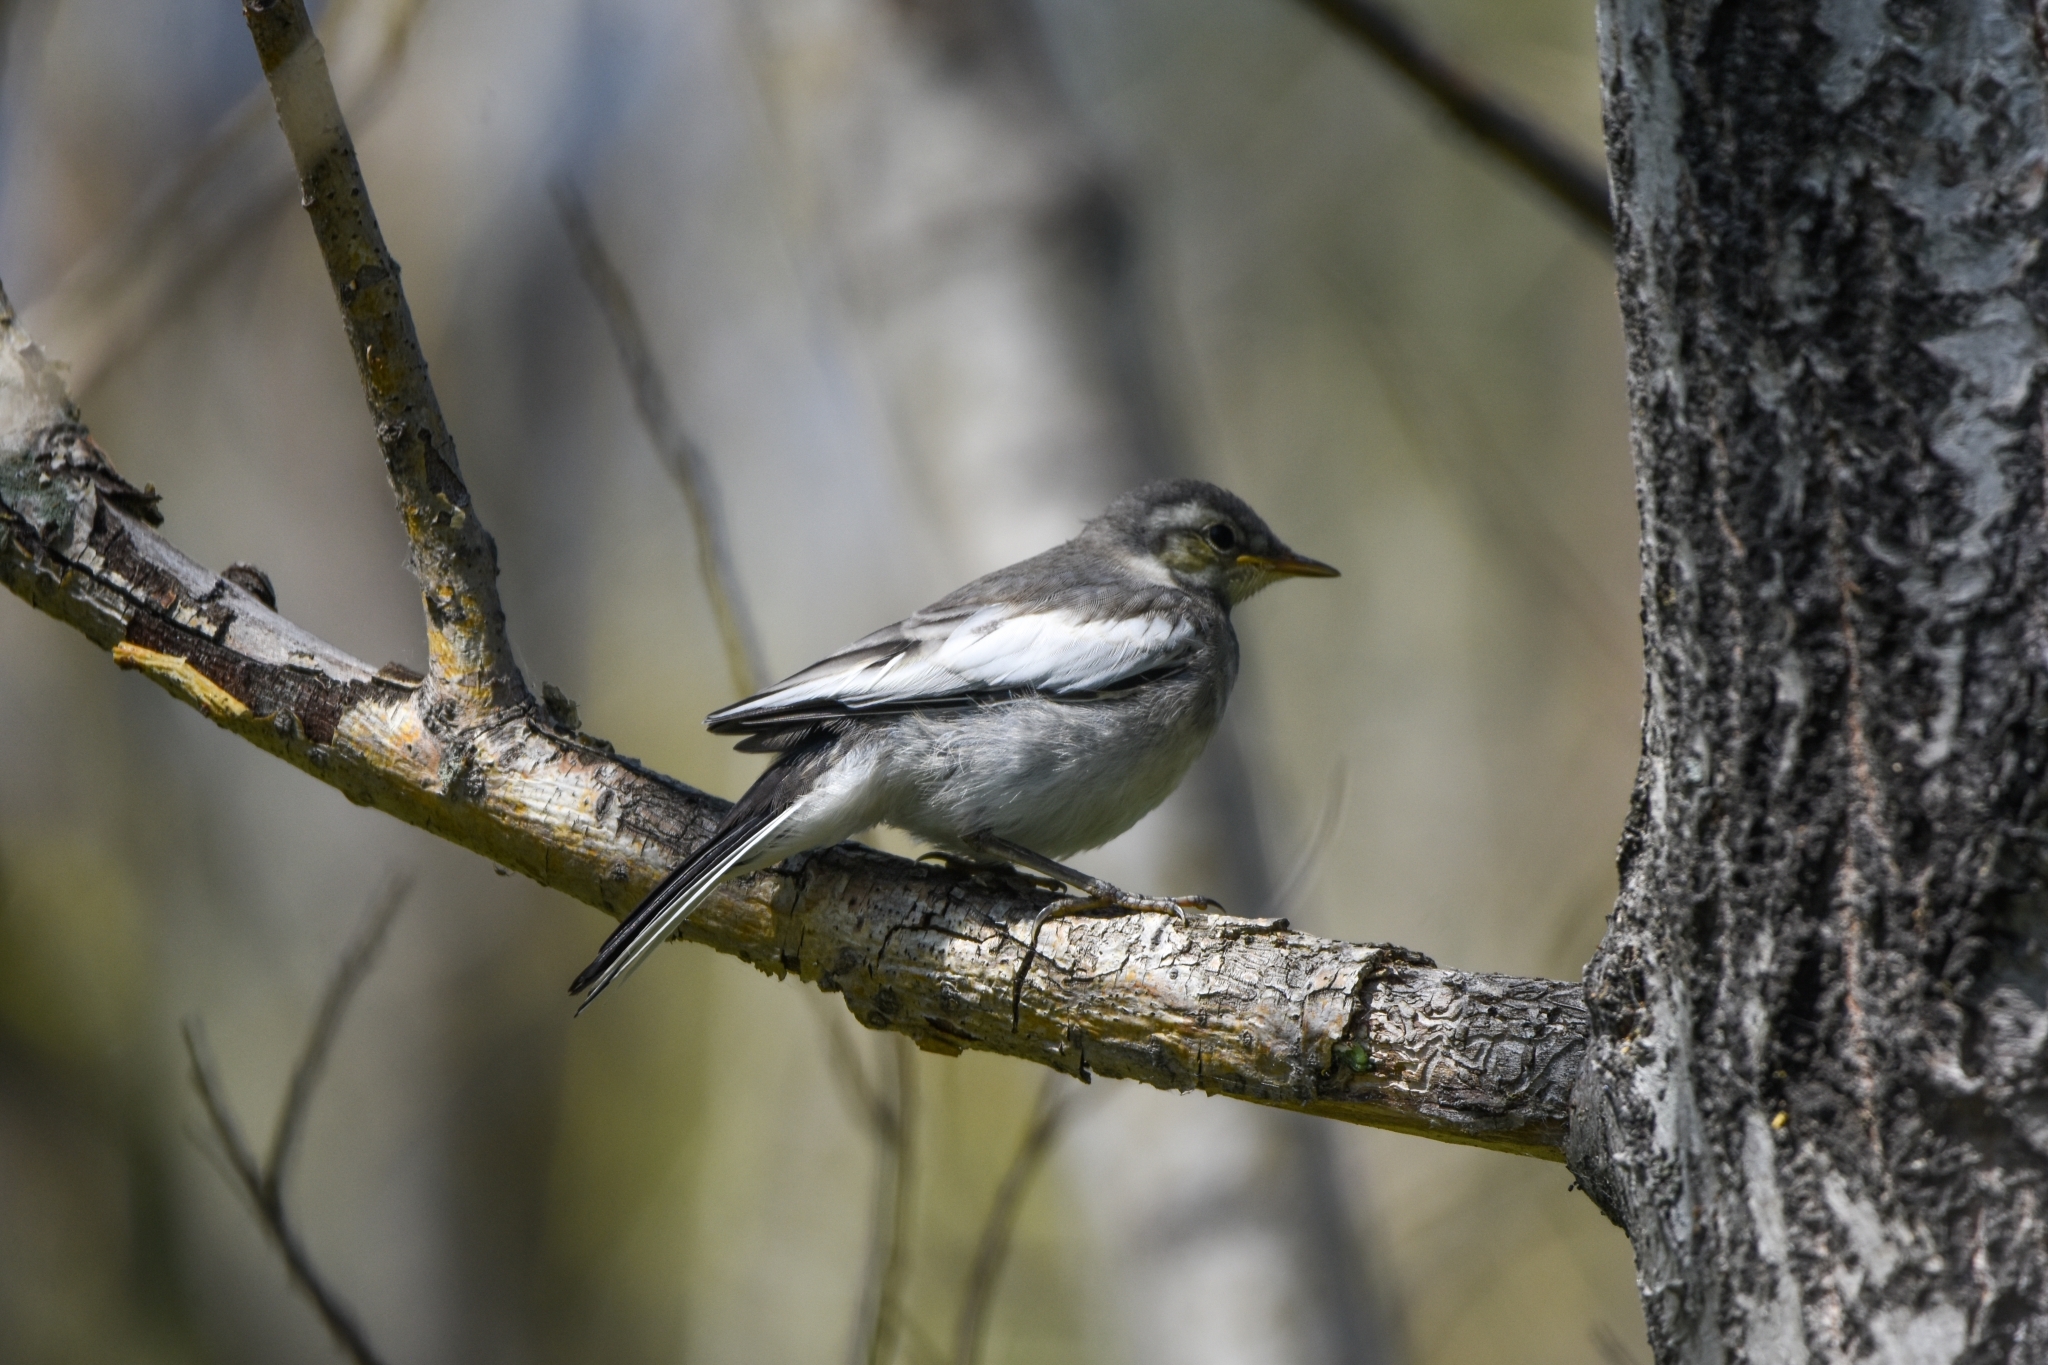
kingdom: Animalia
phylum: Chordata
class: Aves
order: Passeriformes
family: Motacillidae
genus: Motacilla
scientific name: Motacilla alba
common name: White wagtail
